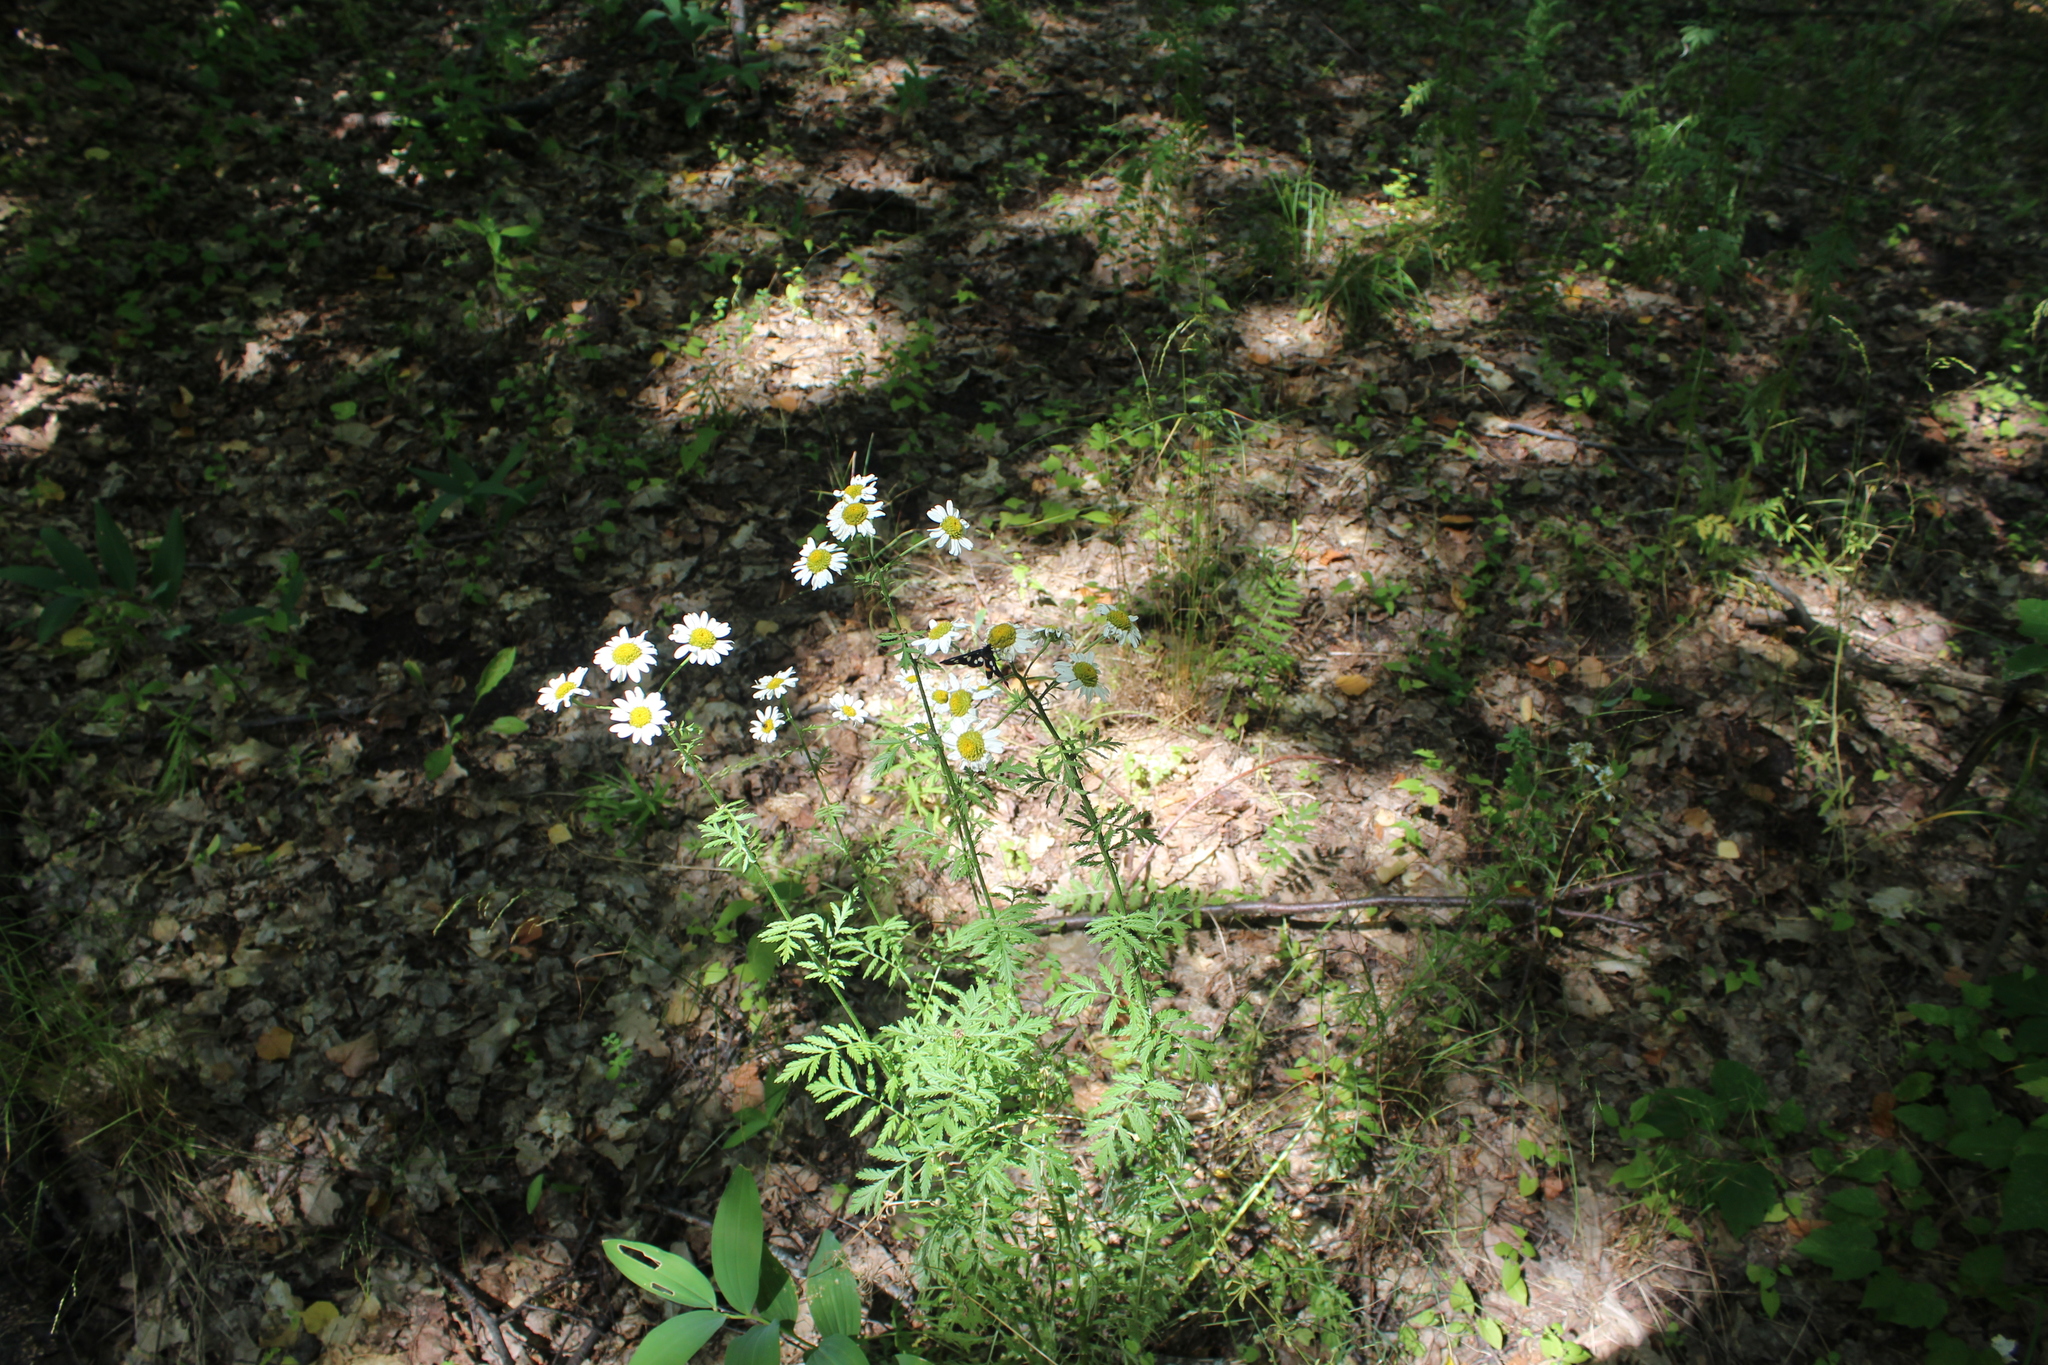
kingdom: Plantae
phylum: Tracheophyta
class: Magnoliopsida
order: Asterales
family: Asteraceae
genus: Tanacetum
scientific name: Tanacetum corymbosum
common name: Scentless feverfew
